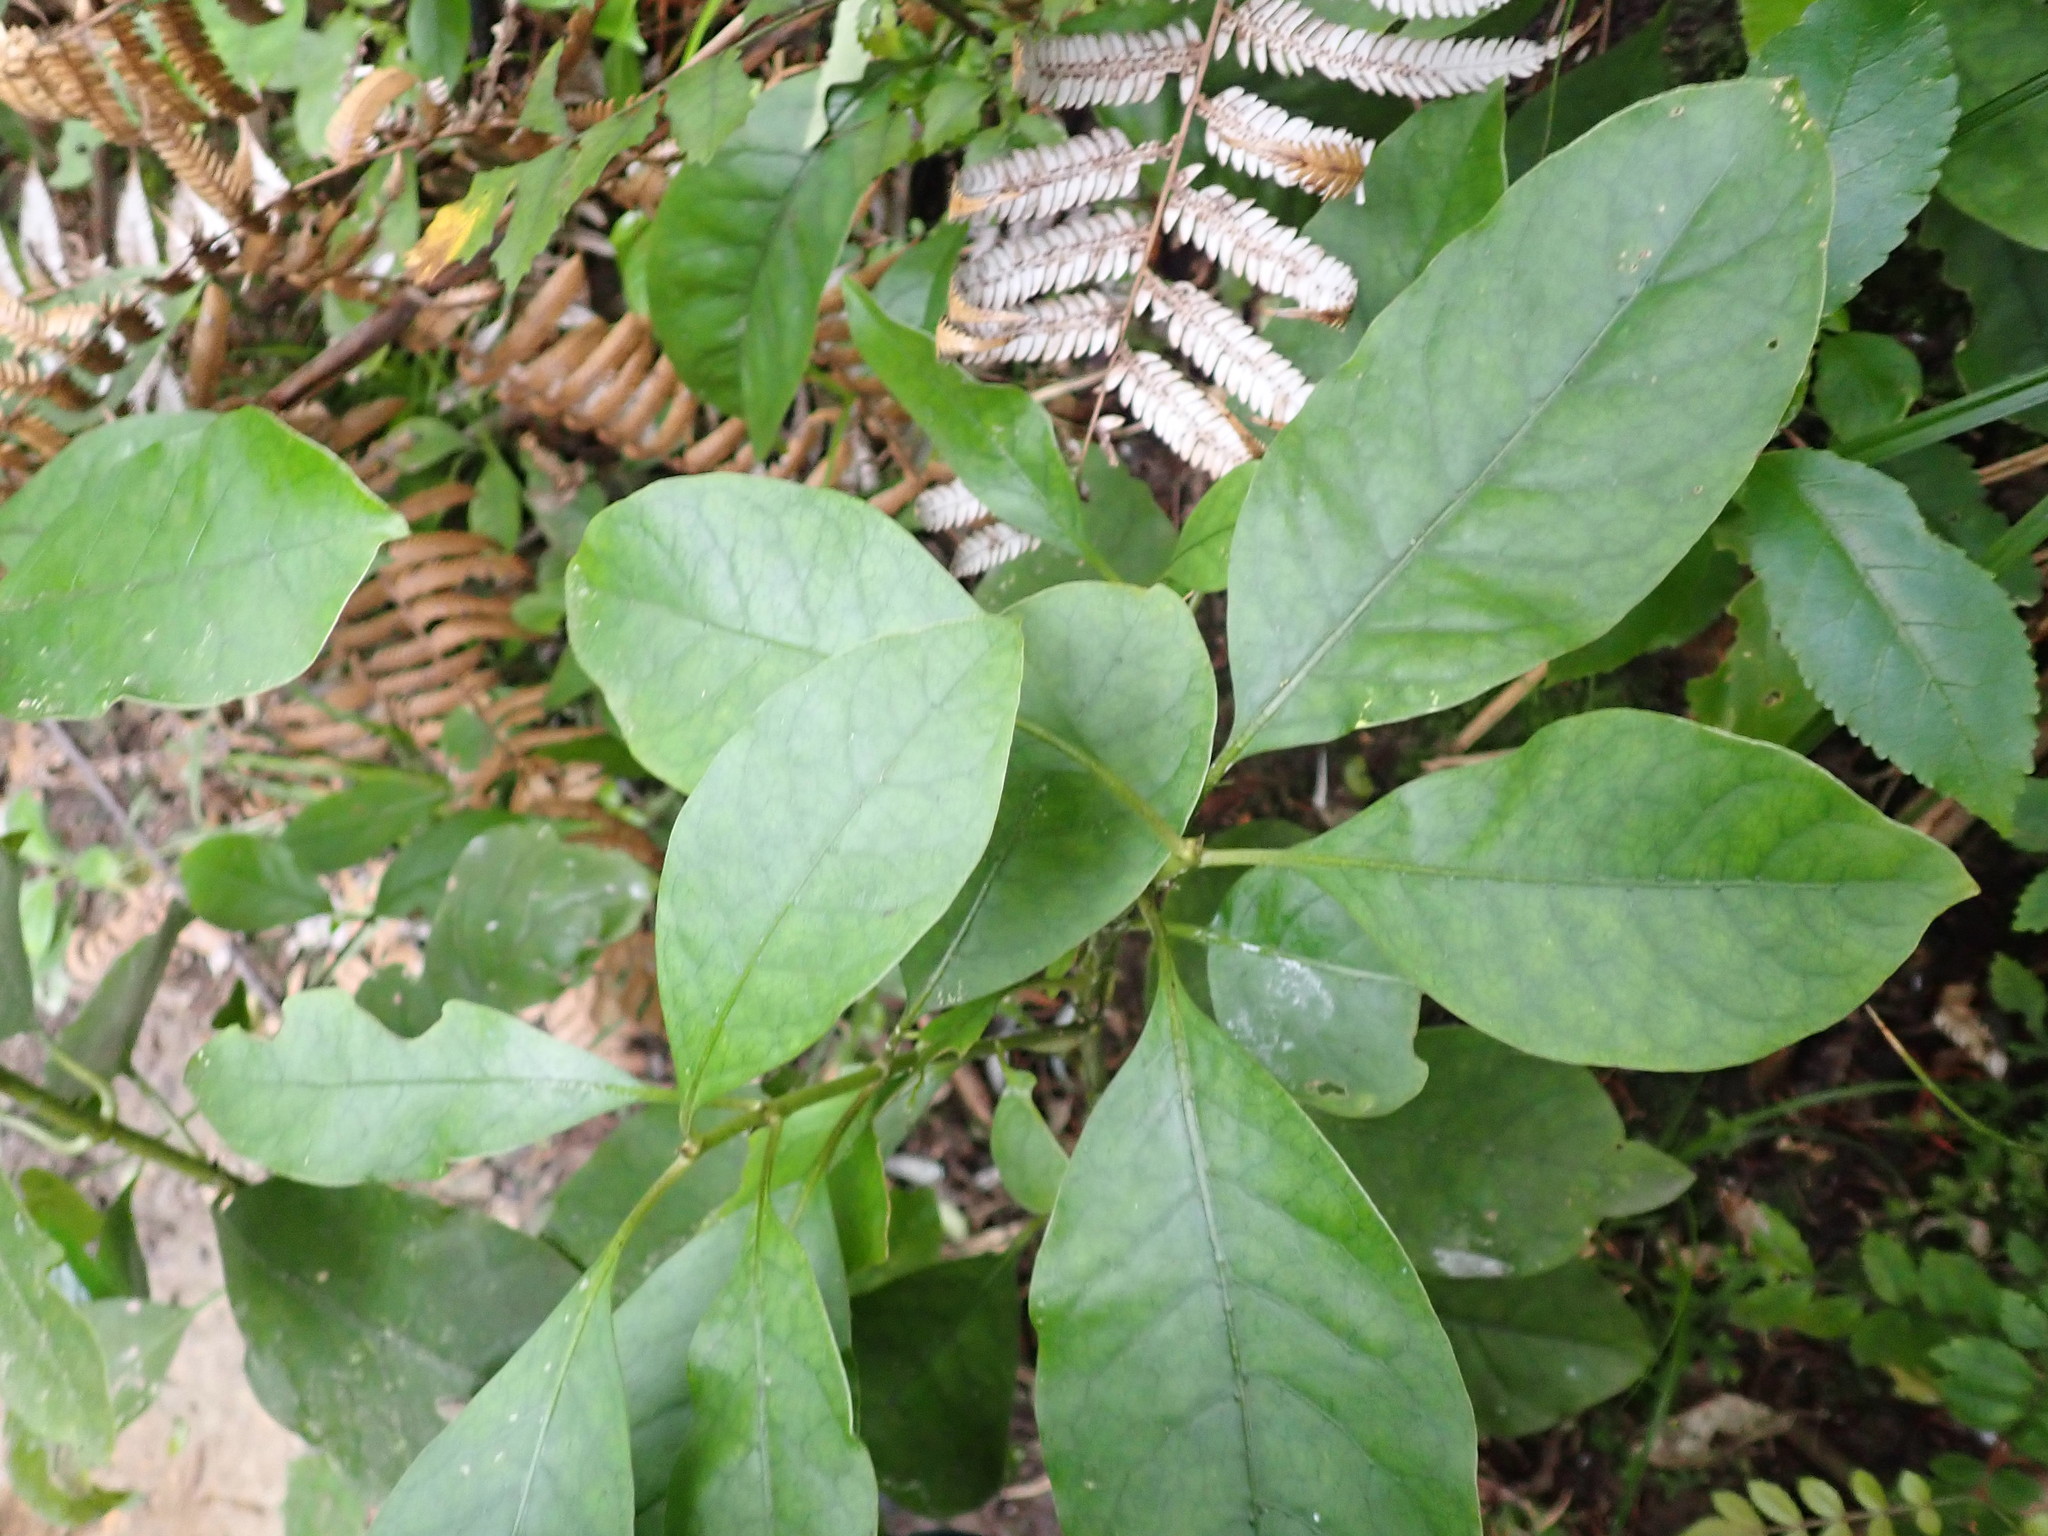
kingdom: Plantae
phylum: Tracheophyta
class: Magnoliopsida
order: Gentianales
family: Rubiaceae
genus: Coprosma
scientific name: Coprosma autumnalis
